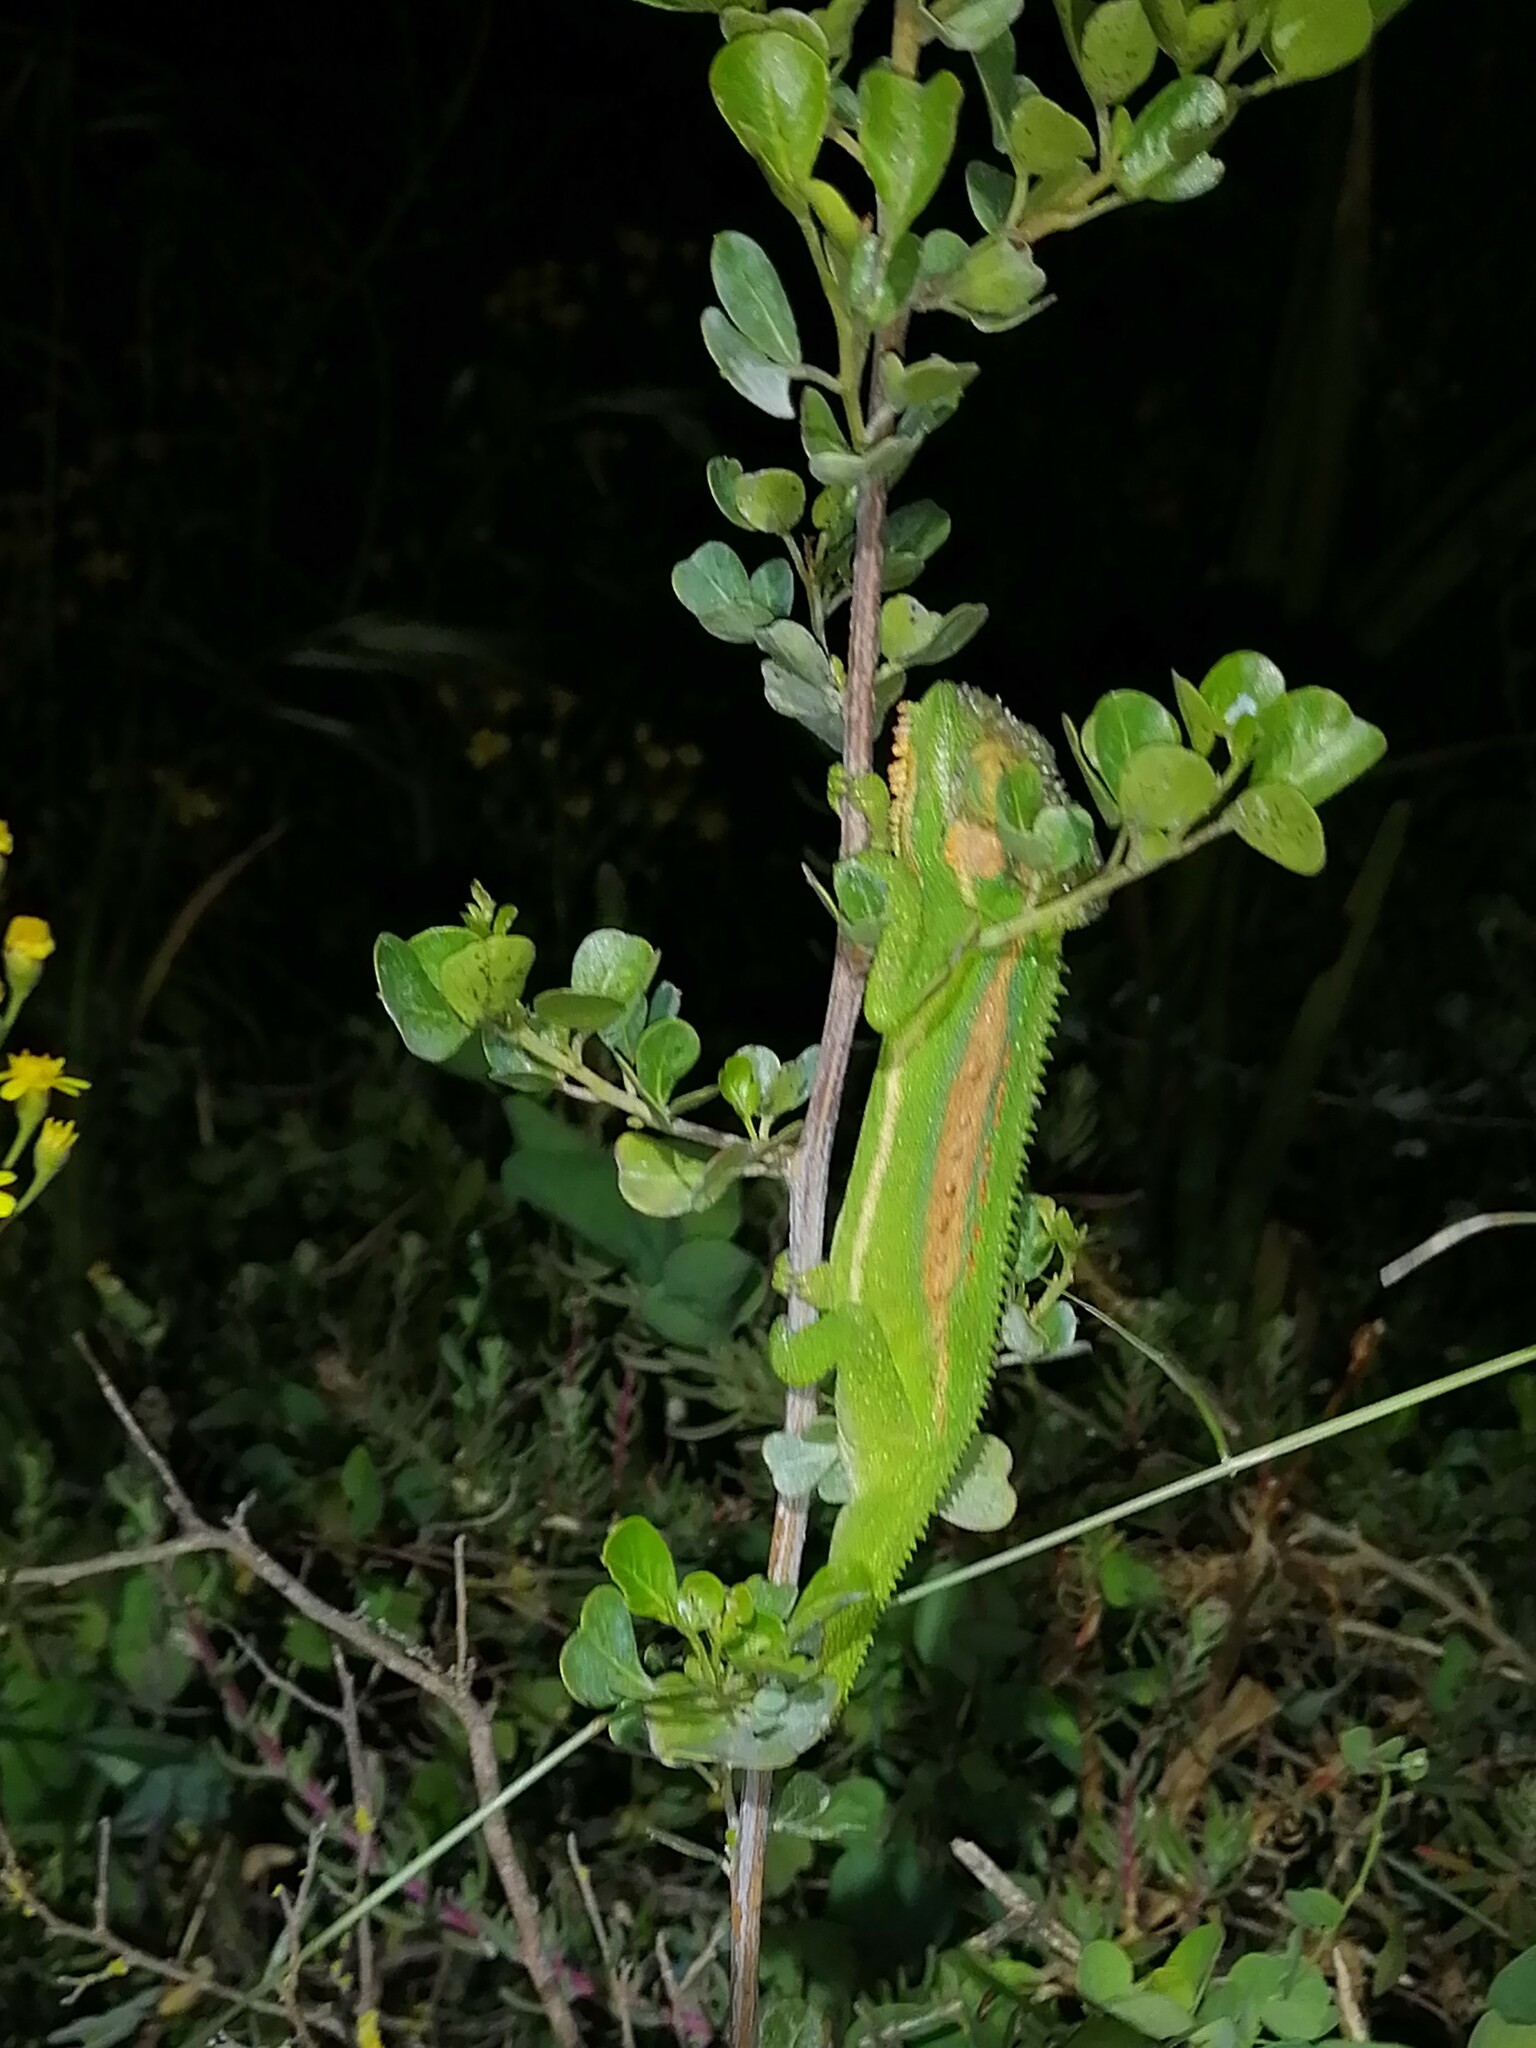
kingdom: Animalia
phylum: Chordata
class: Squamata
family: Chamaeleonidae
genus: Bradypodion
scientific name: Bradypodion pumilum
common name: Cape dwarf chameleon
